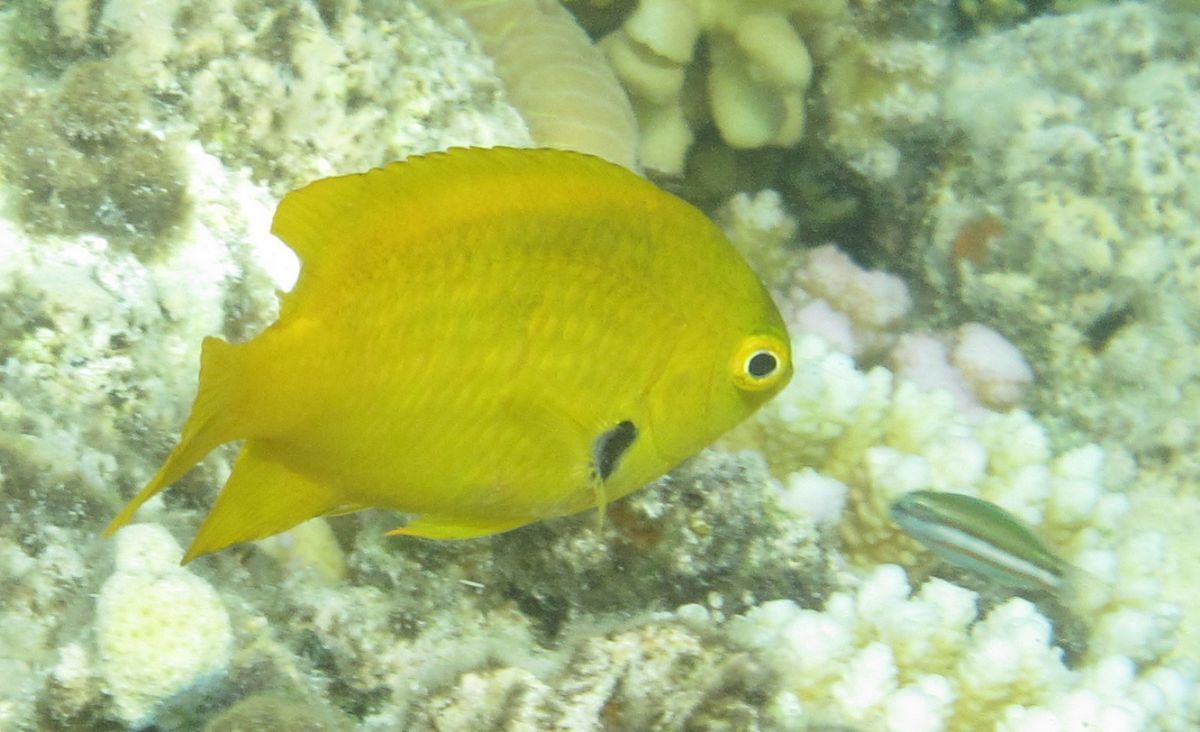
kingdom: Animalia
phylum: Chordata
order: Perciformes
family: Pomacentridae
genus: Pomacentrus
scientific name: Pomacentrus sulfureus
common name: Sulfur damsel
